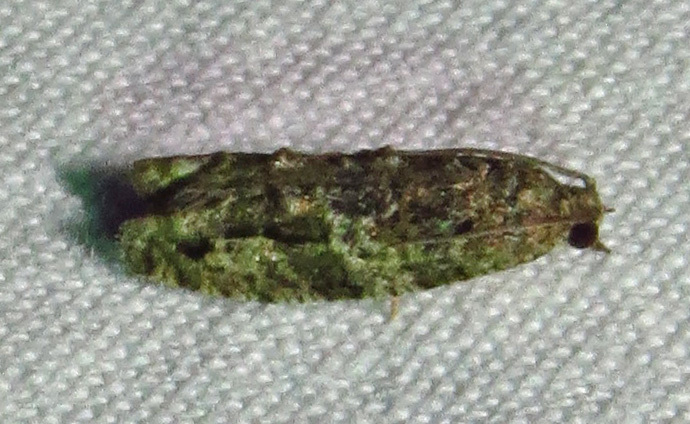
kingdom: Animalia
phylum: Arthropoda
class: Insecta
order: Lepidoptera
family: Tortricidae
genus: Proteoteras
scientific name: Proteoteras aesculana
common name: Maple twig borer moth
